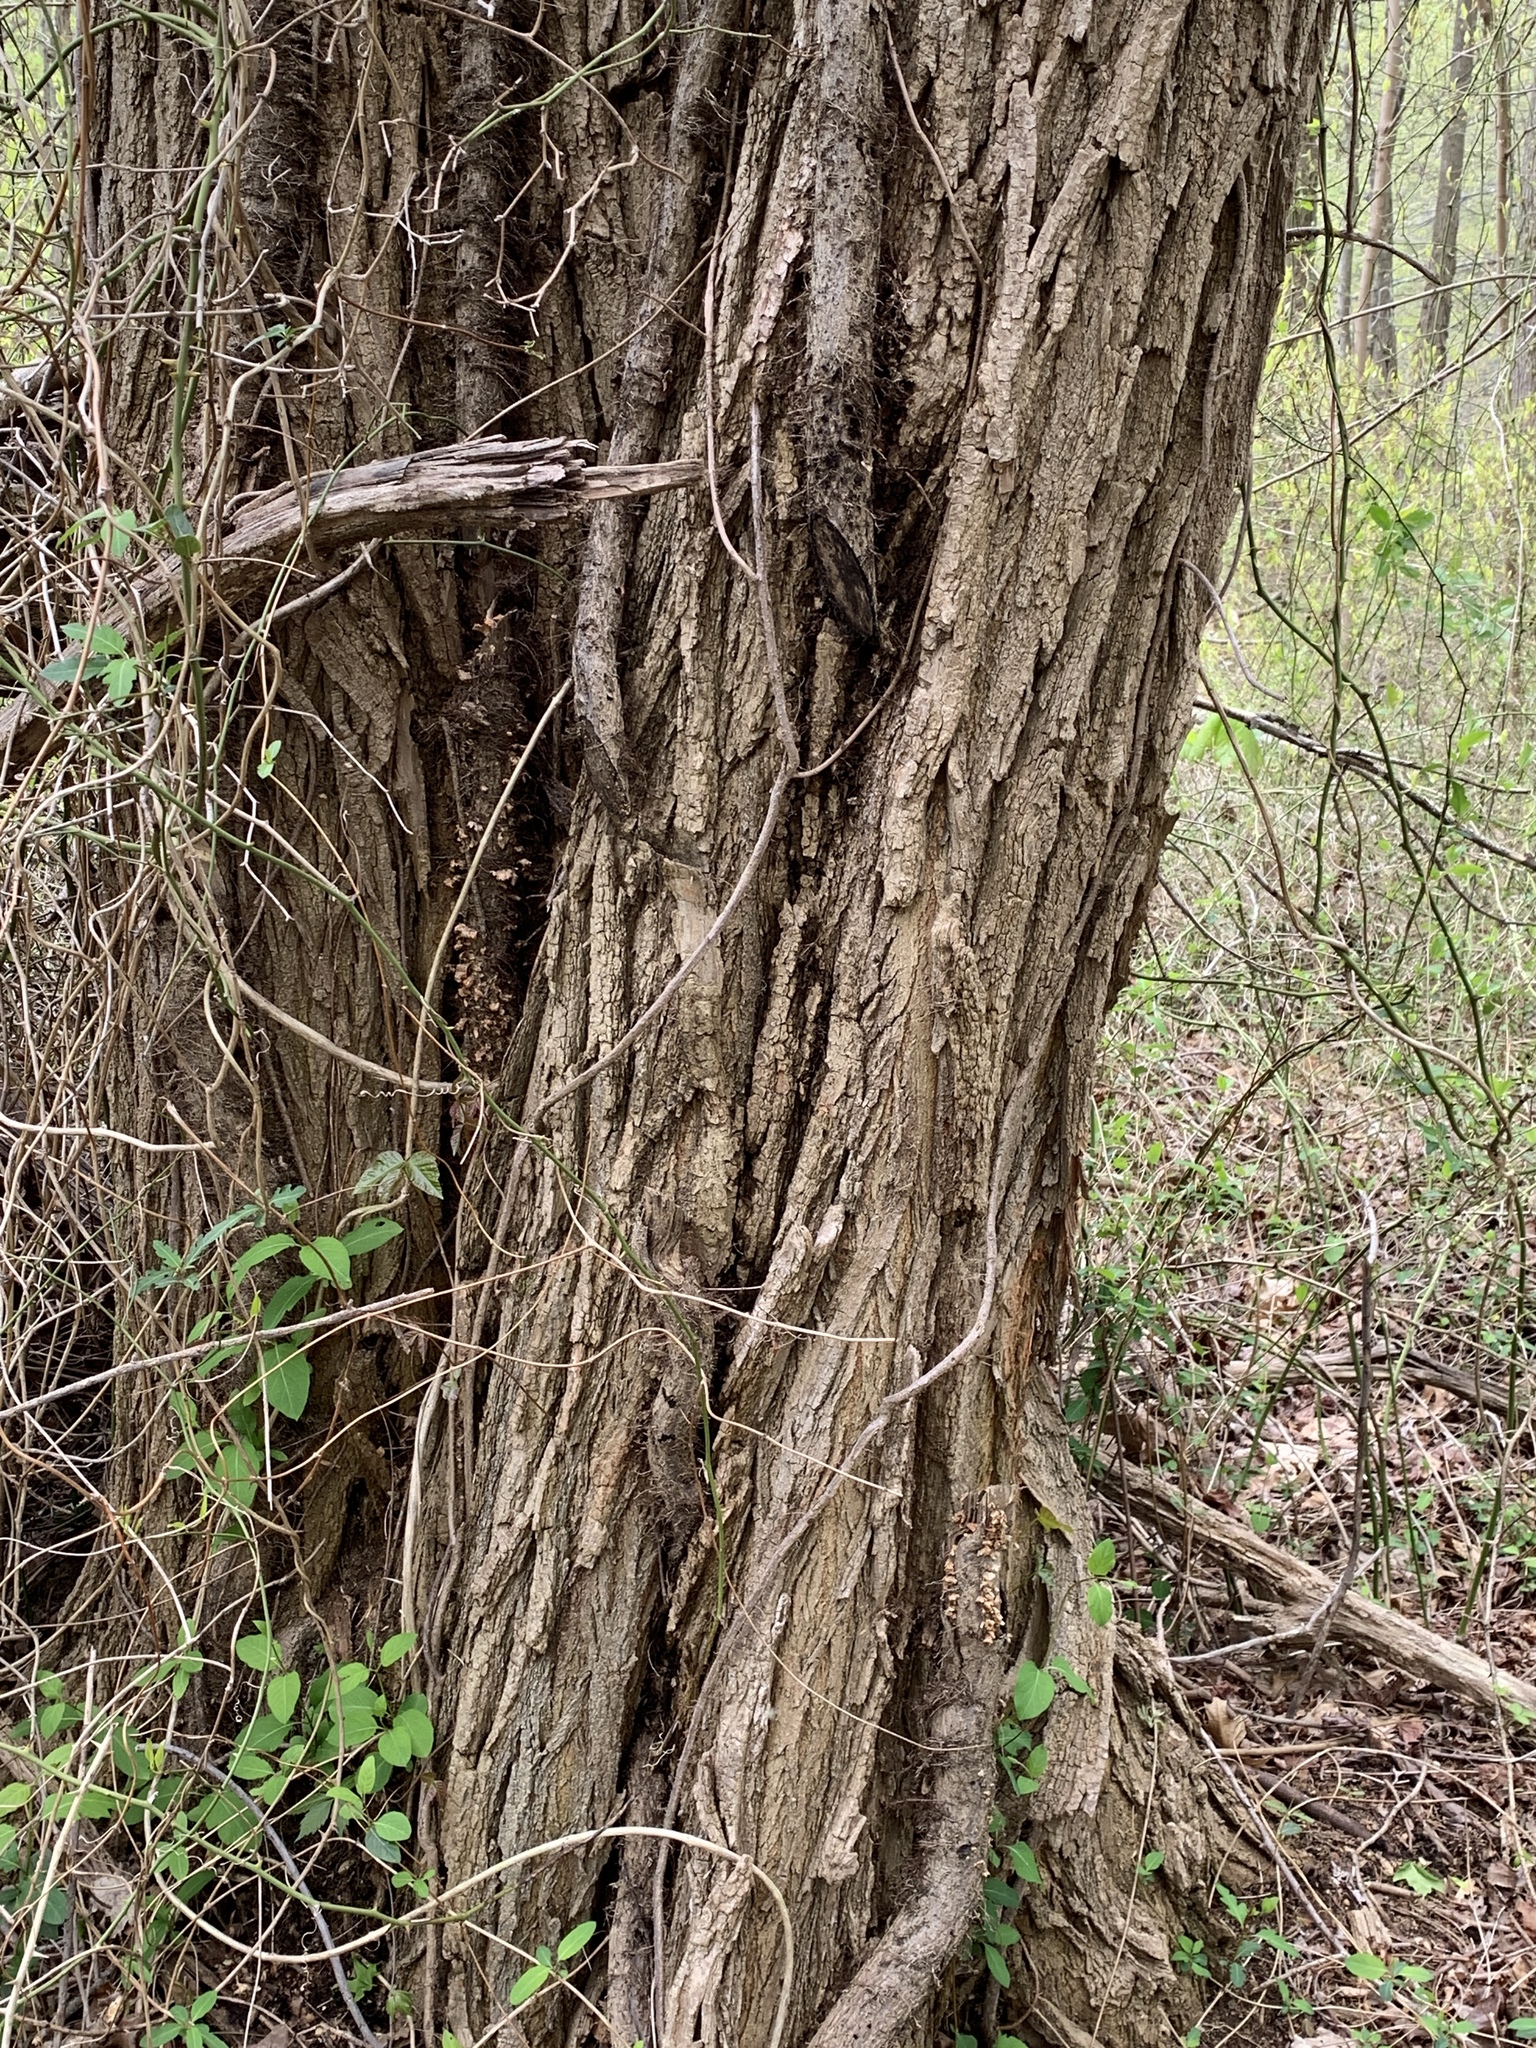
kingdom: Plantae
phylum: Tracheophyta
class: Magnoliopsida
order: Fabales
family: Fabaceae
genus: Robinia
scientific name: Robinia pseudoacacia
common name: Black locust
